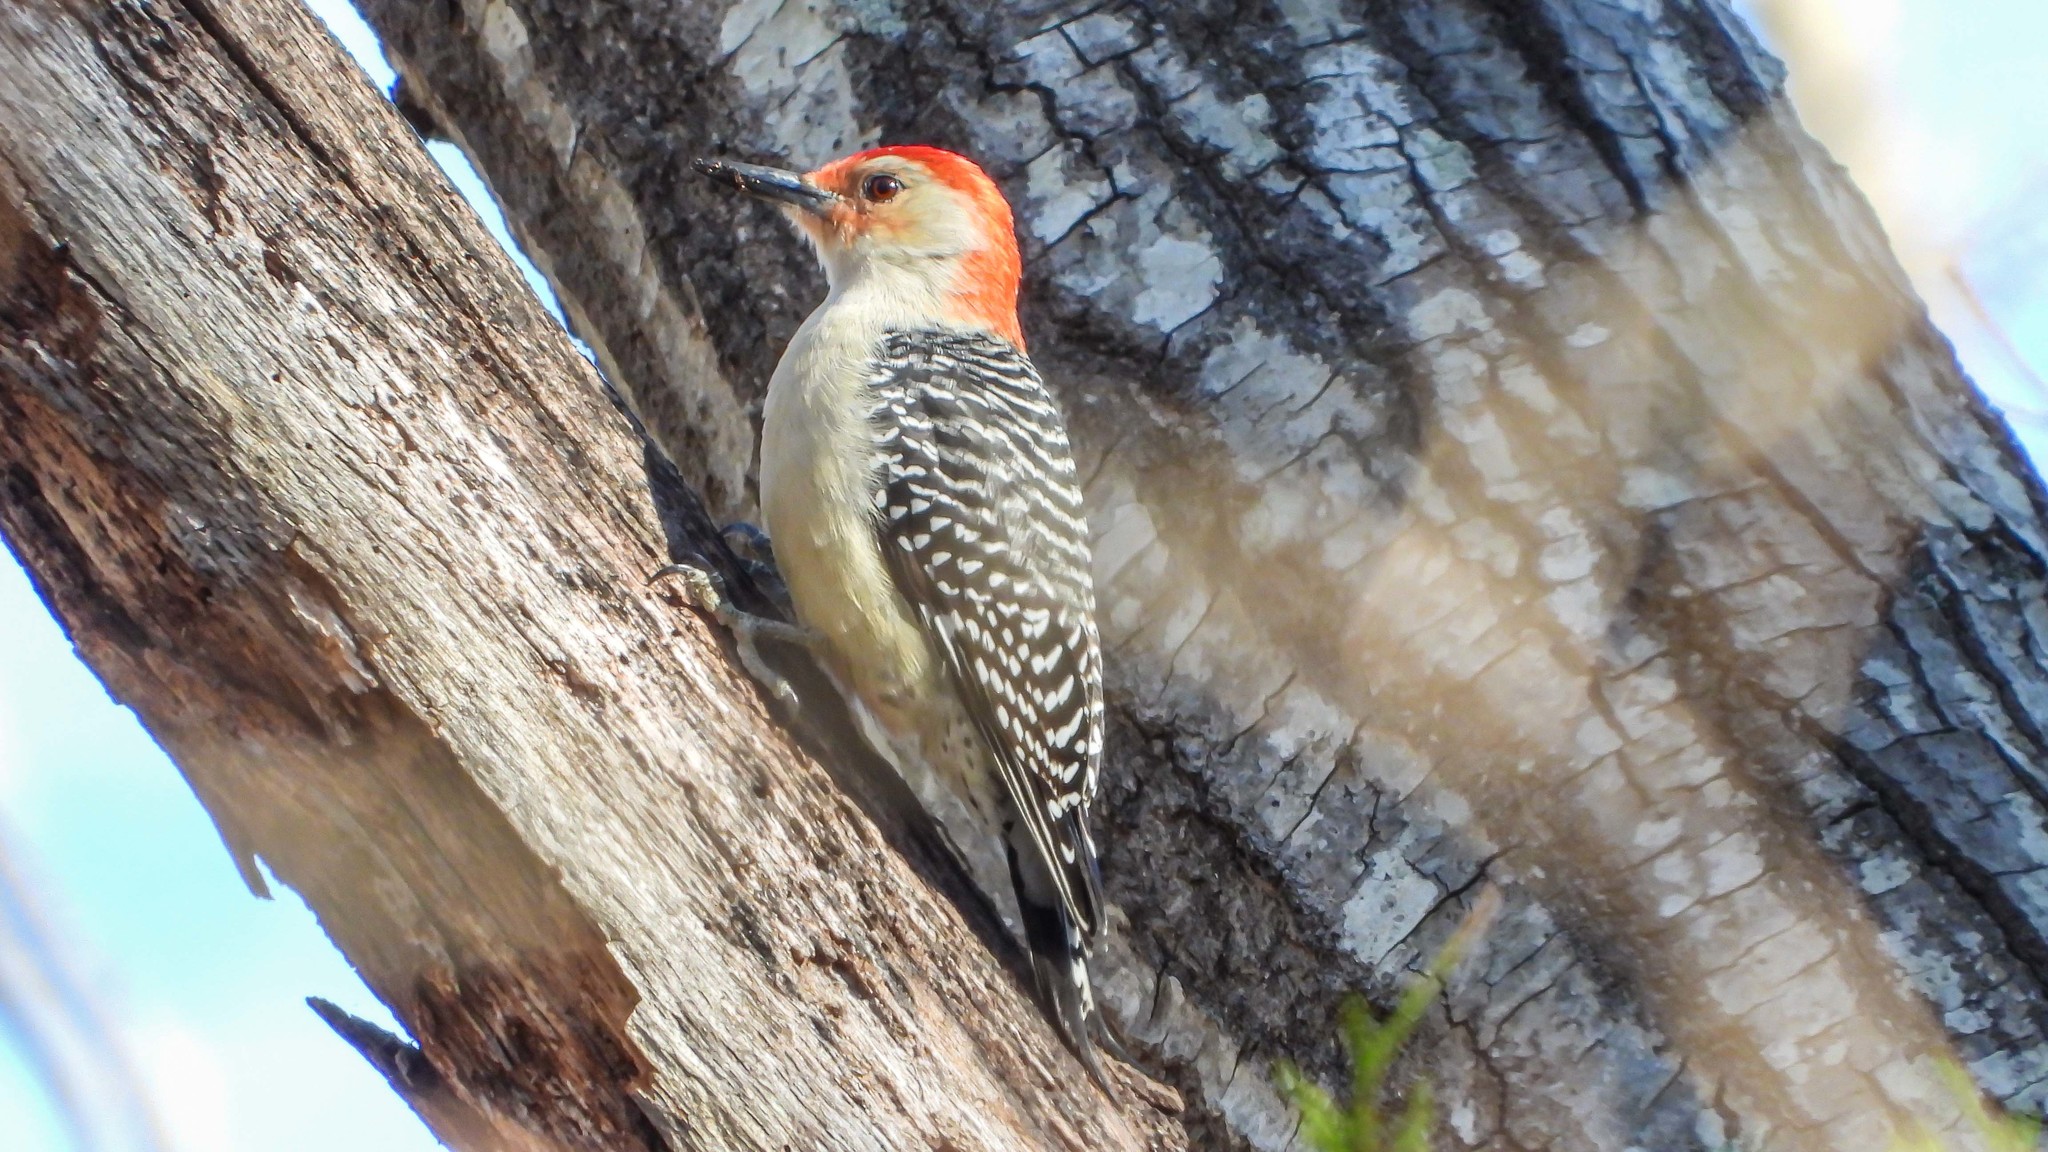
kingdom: Animalia
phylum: Chordata
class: Aves
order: Piciformes
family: Picidae
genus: Melanerpes
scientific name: Melanerpes carolinus
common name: Red-bellied woodpecker
